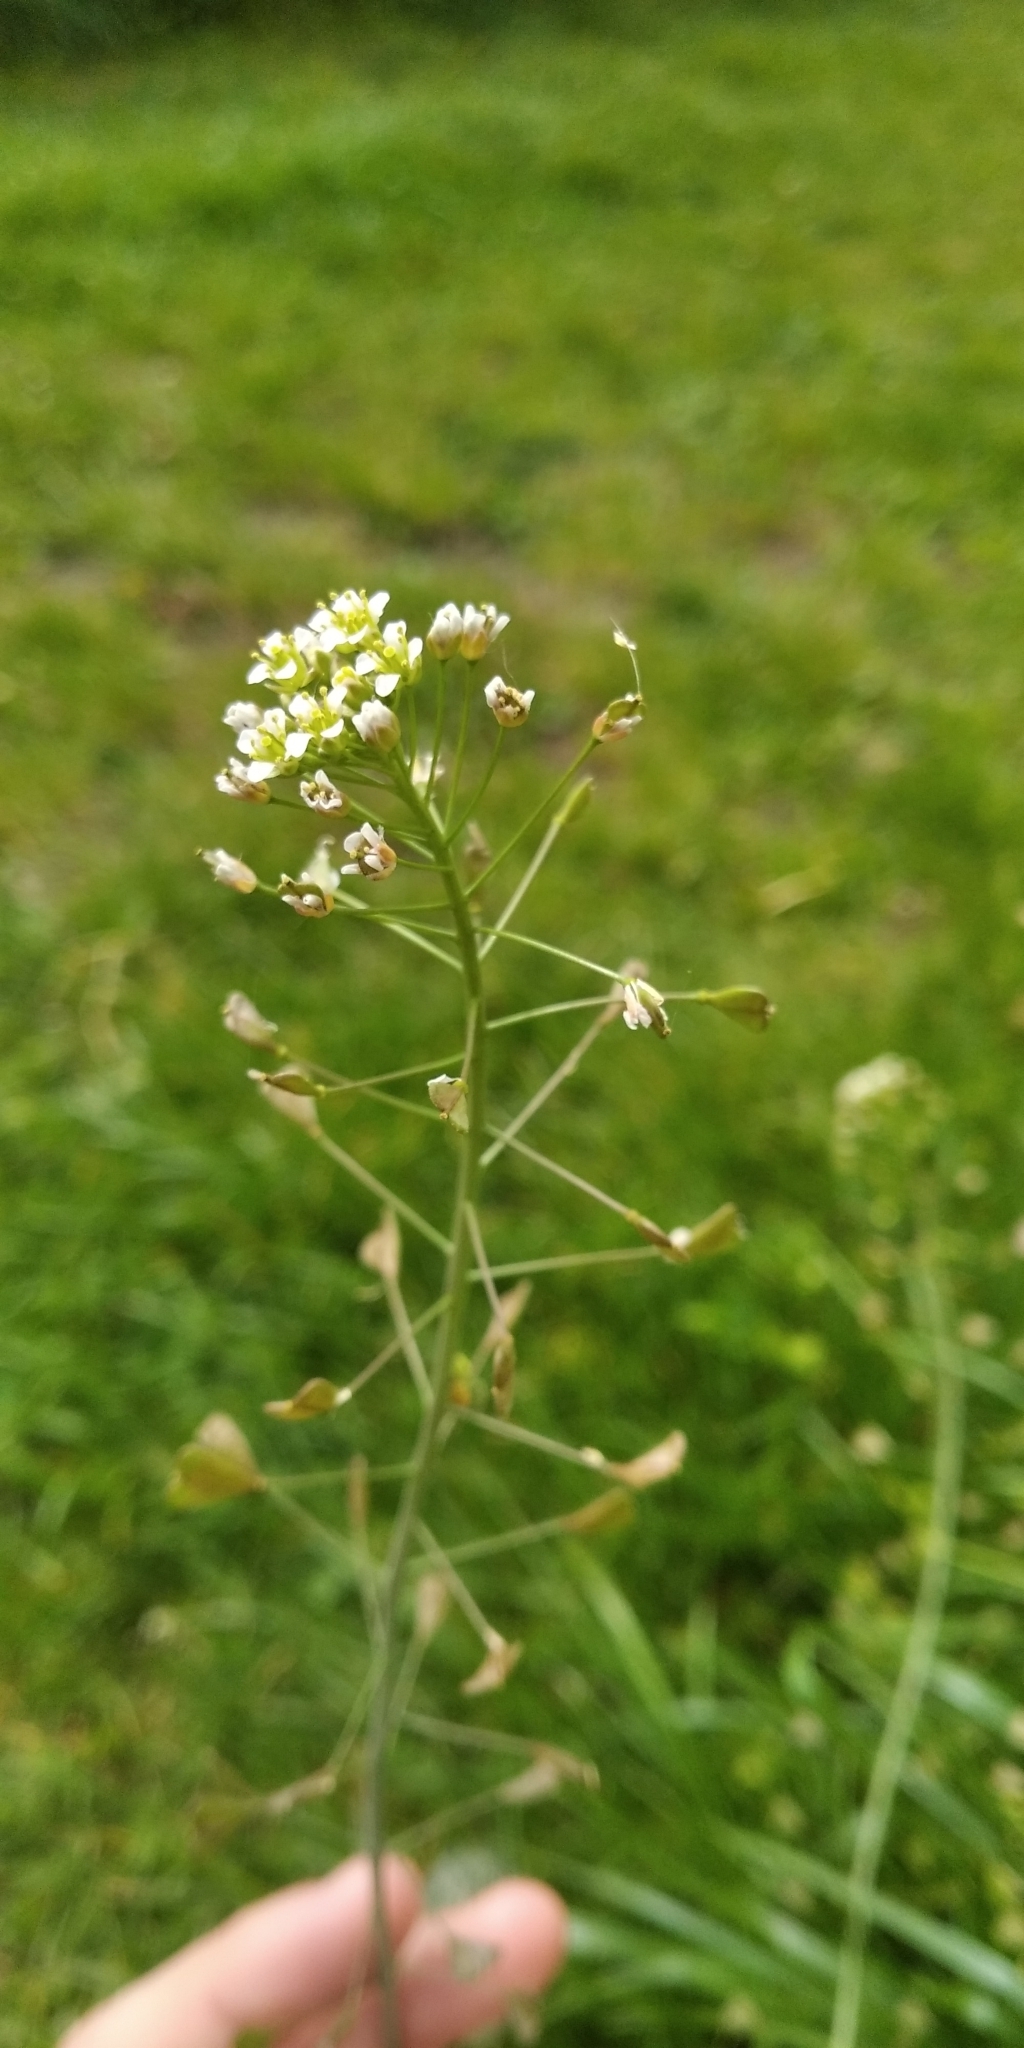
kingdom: Plantae
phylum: Tracheophyta
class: Magnoliopsida
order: Brassicales
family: Brassicaceae
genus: Capsella
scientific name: Capsella bursa-pastoris
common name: Shepherd's purse
